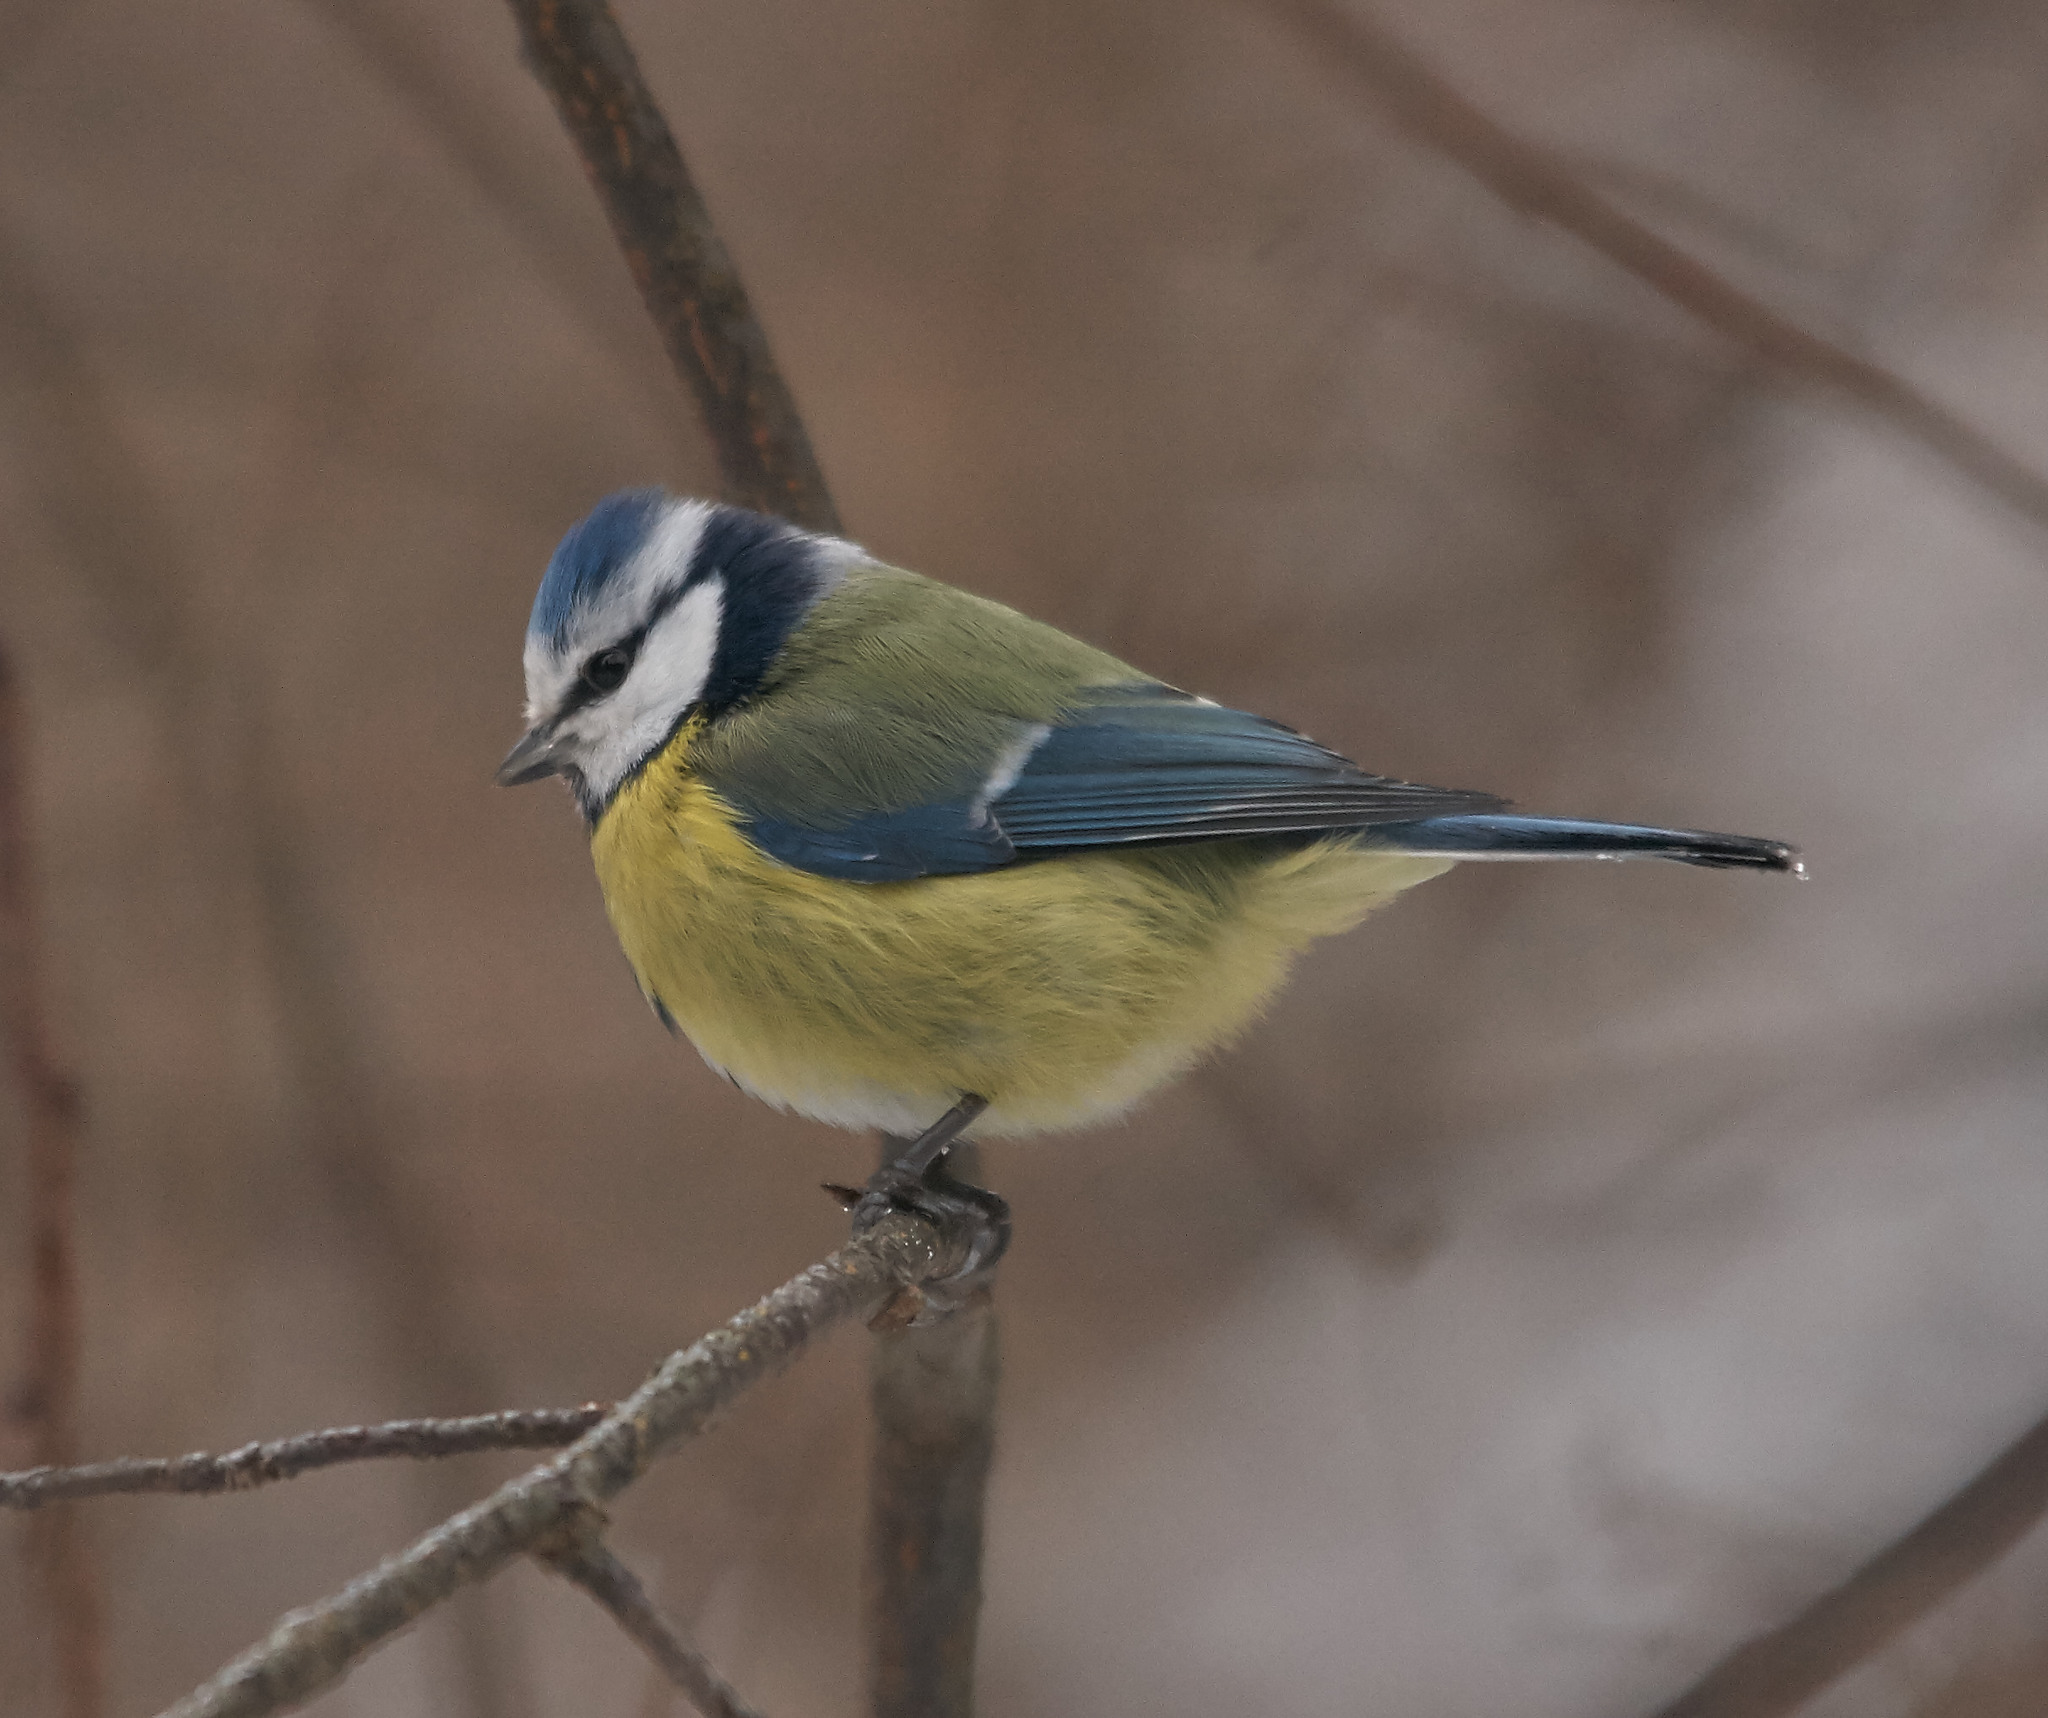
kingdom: Animalia
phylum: Chordata
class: Aves
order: Passeriformes
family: Paridae
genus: Cyanistes
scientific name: Cyanistes caeruleus
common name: Eurasian blue tit
